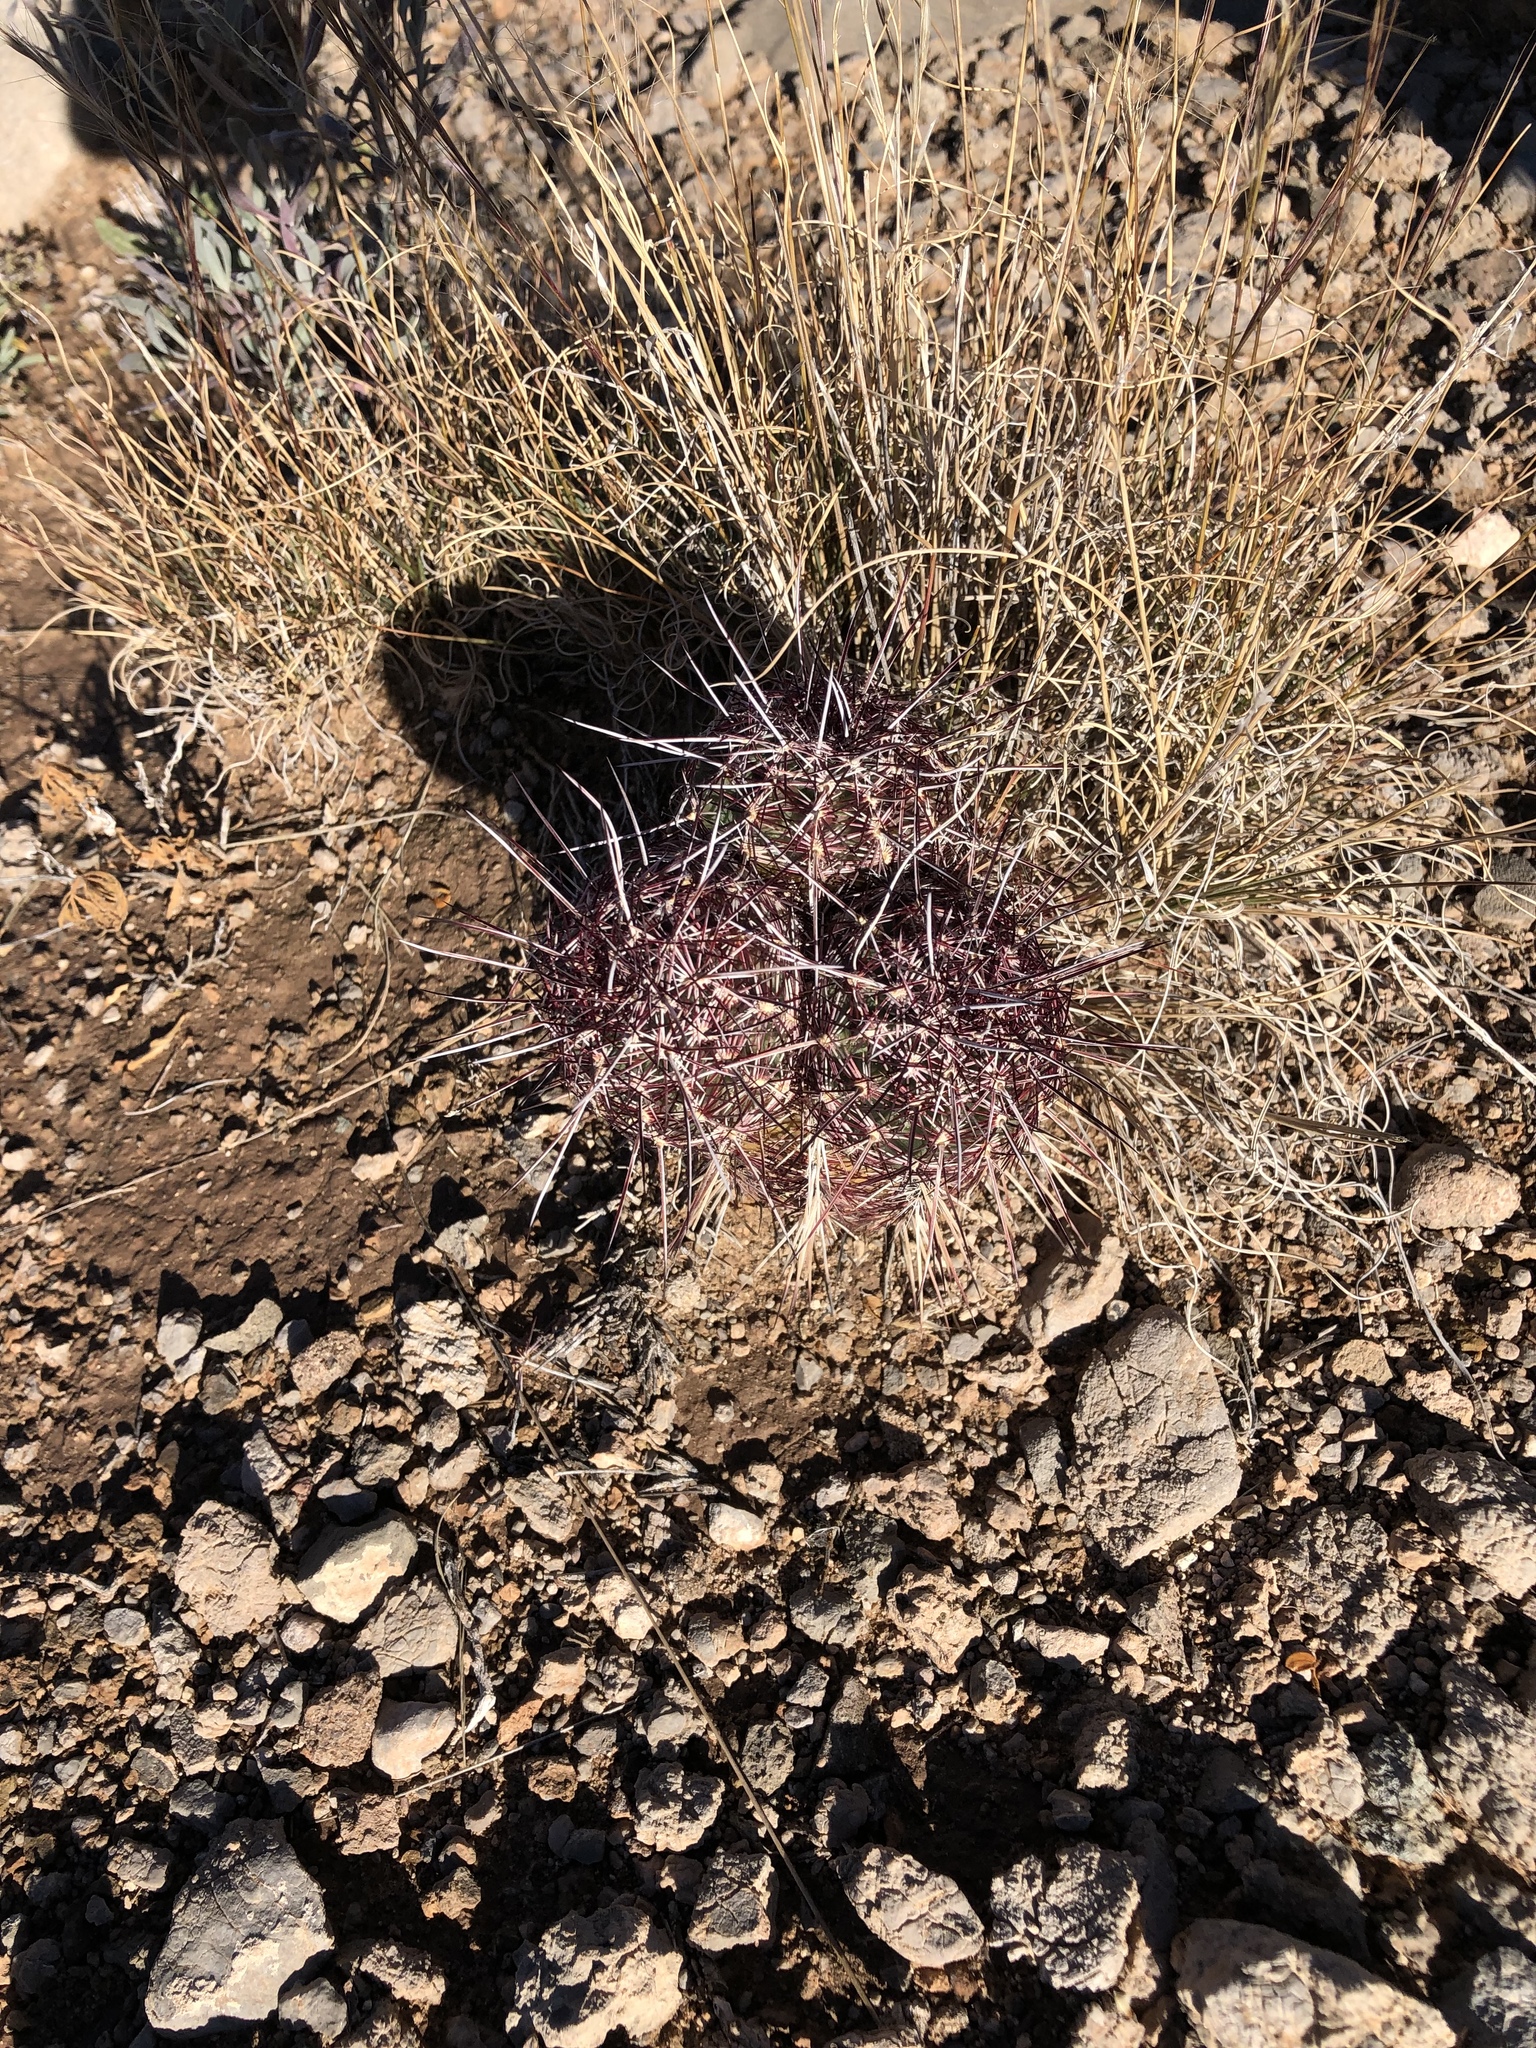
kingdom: Plantae
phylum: Tracheophyta
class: Magnoliopsida
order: Caryophyllales
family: Cactaceae
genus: Echinocereus
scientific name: Echinocereus viridiflorus
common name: Nylon hedgehog cactus
